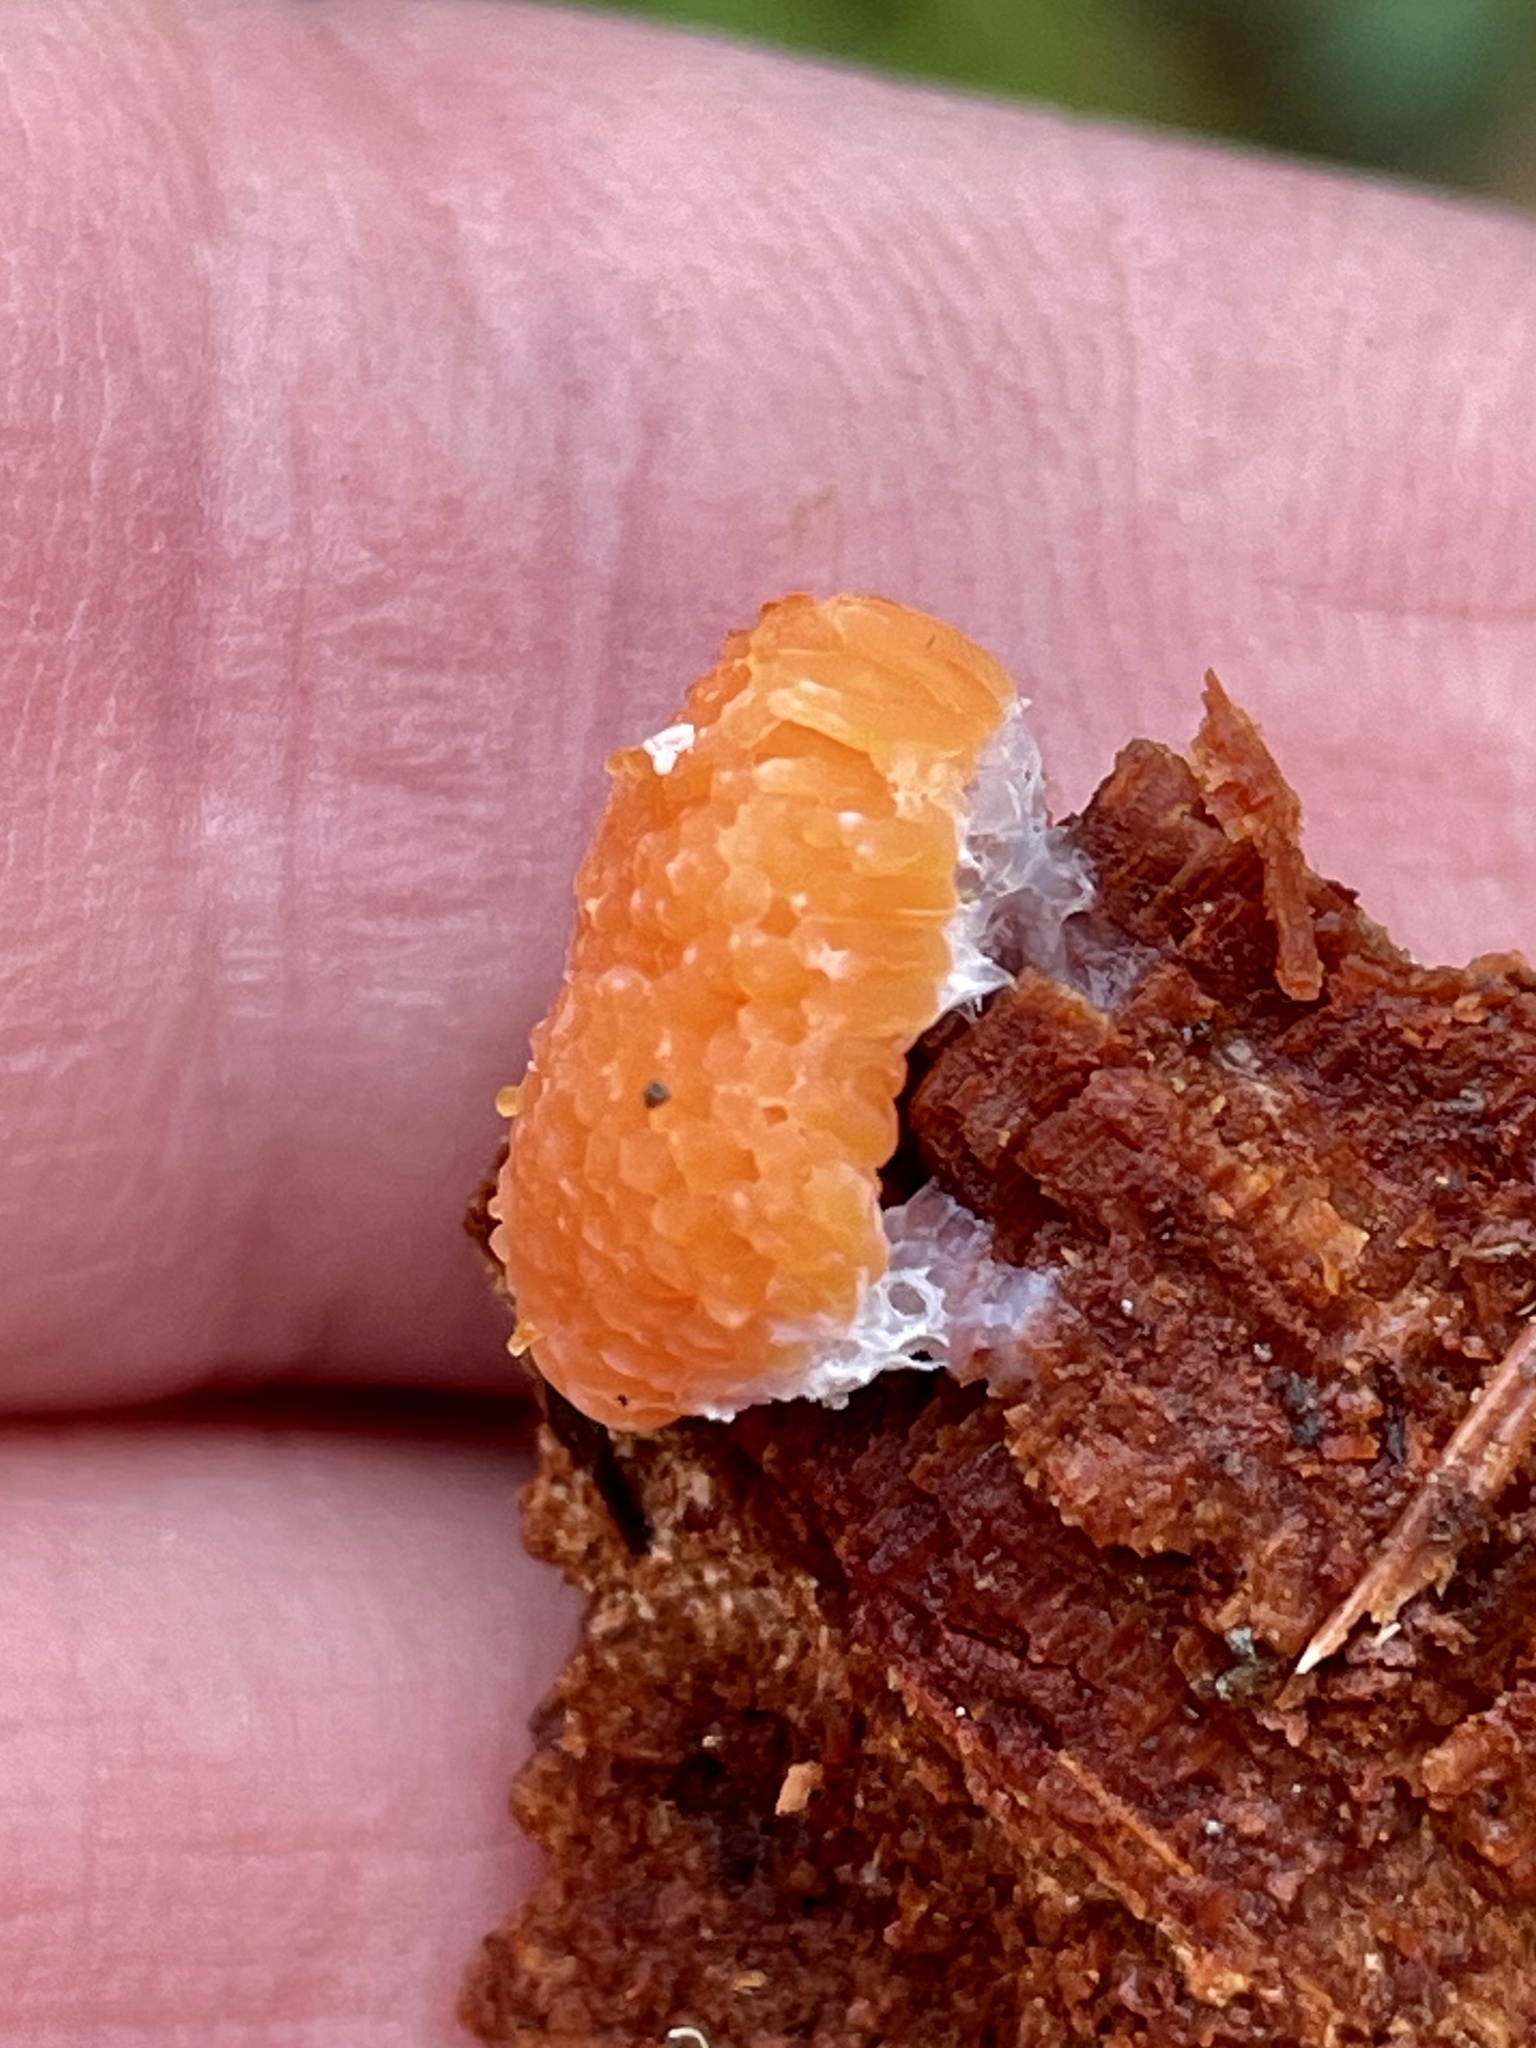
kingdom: Protozoa
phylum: Mycetozoa
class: Myxomycetes
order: Cribrariales
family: Tubiferaceae
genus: Tubifera
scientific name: Tubifera montana
